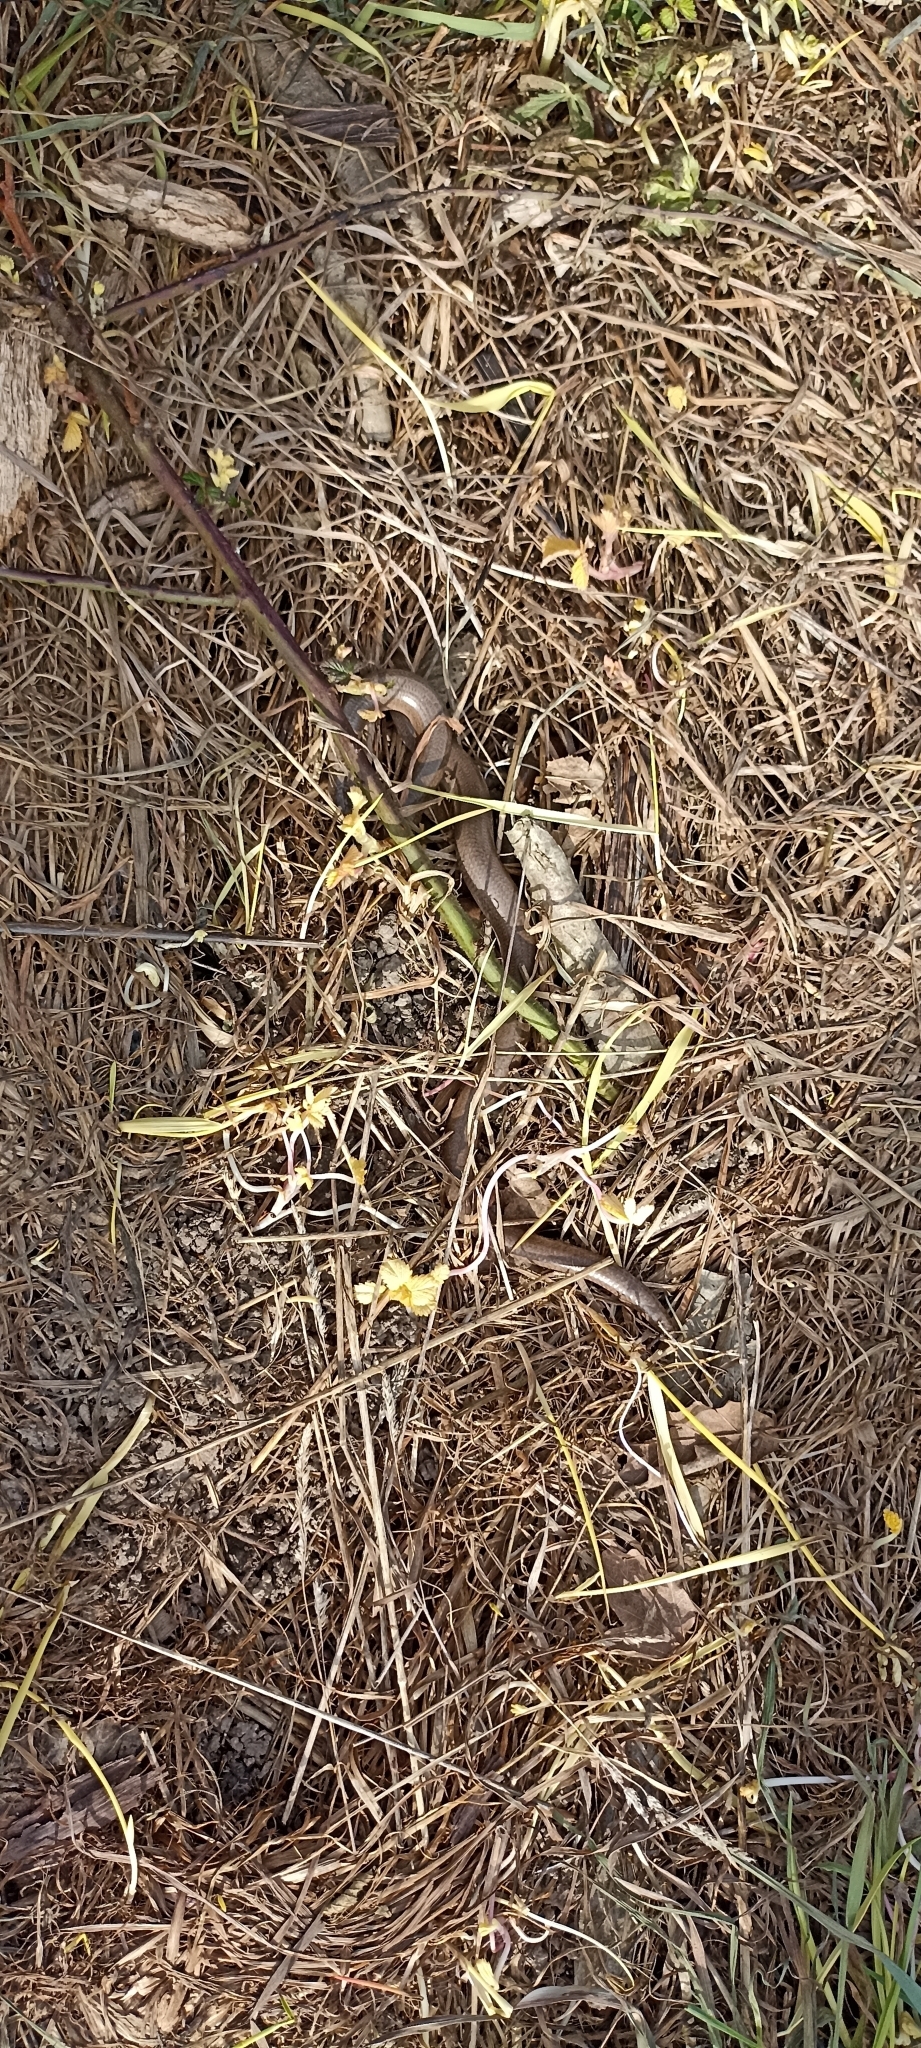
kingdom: Animalia
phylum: Chordata
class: Squamata
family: Anguidae
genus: Anguis
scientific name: Anguis fragilis
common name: Slow worm
